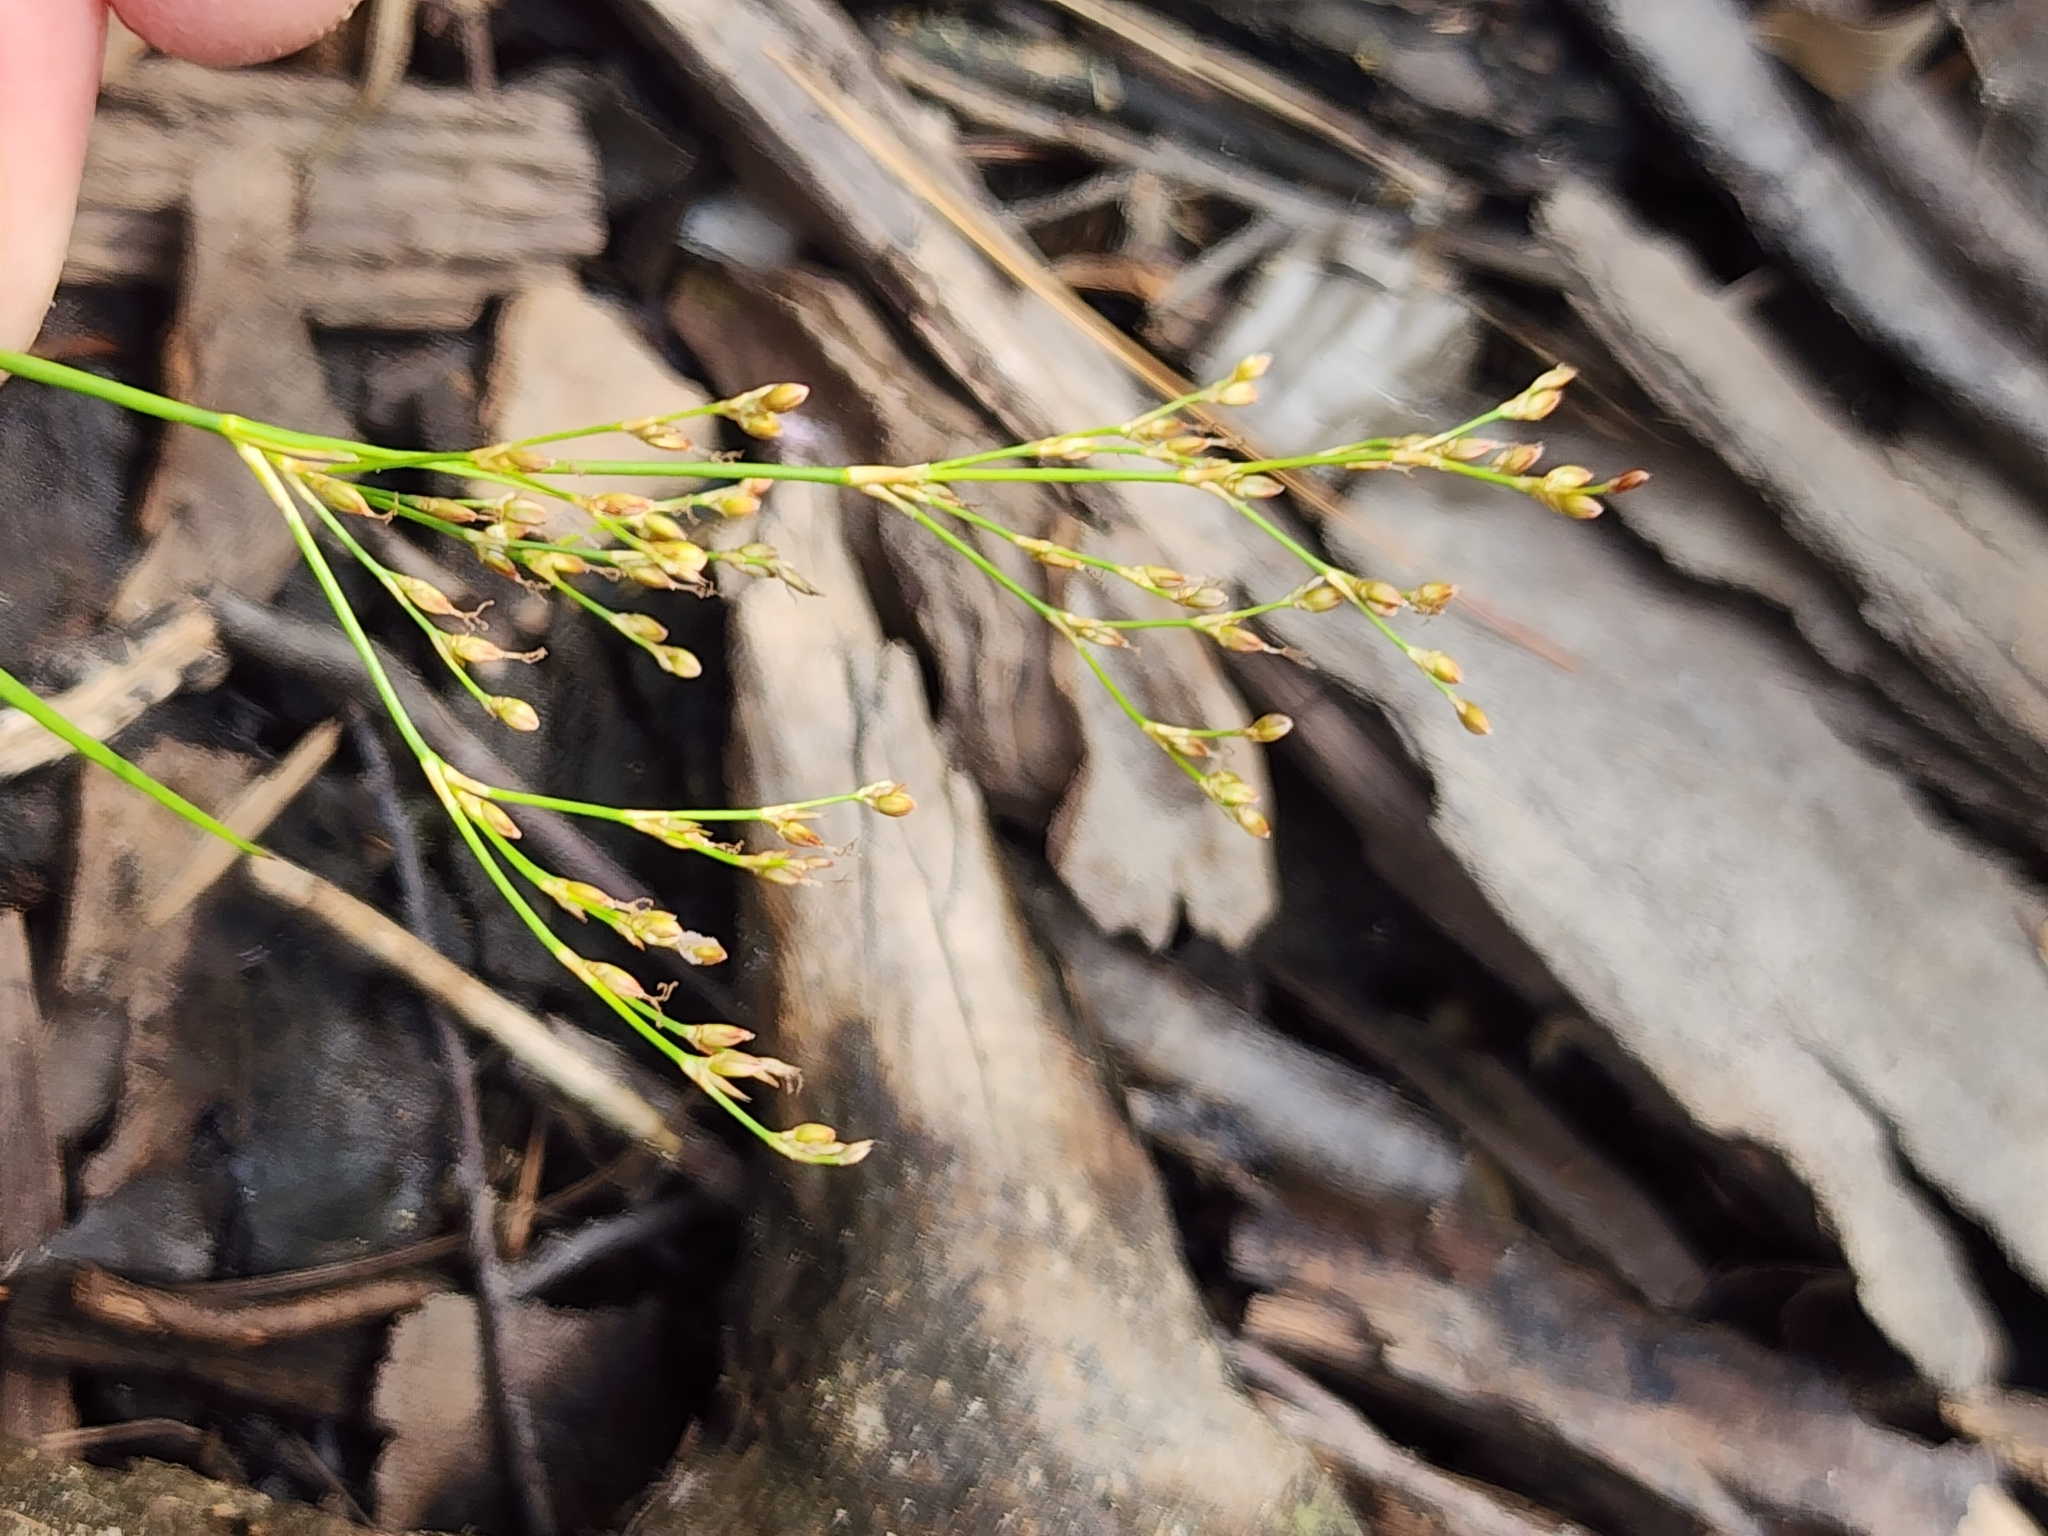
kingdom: Plantae
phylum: Tracheophyta
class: Liliopsida
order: Poales
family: Juncaceae
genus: Juncus
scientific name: Juncus pelocarpus
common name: Brown-fruited rush
